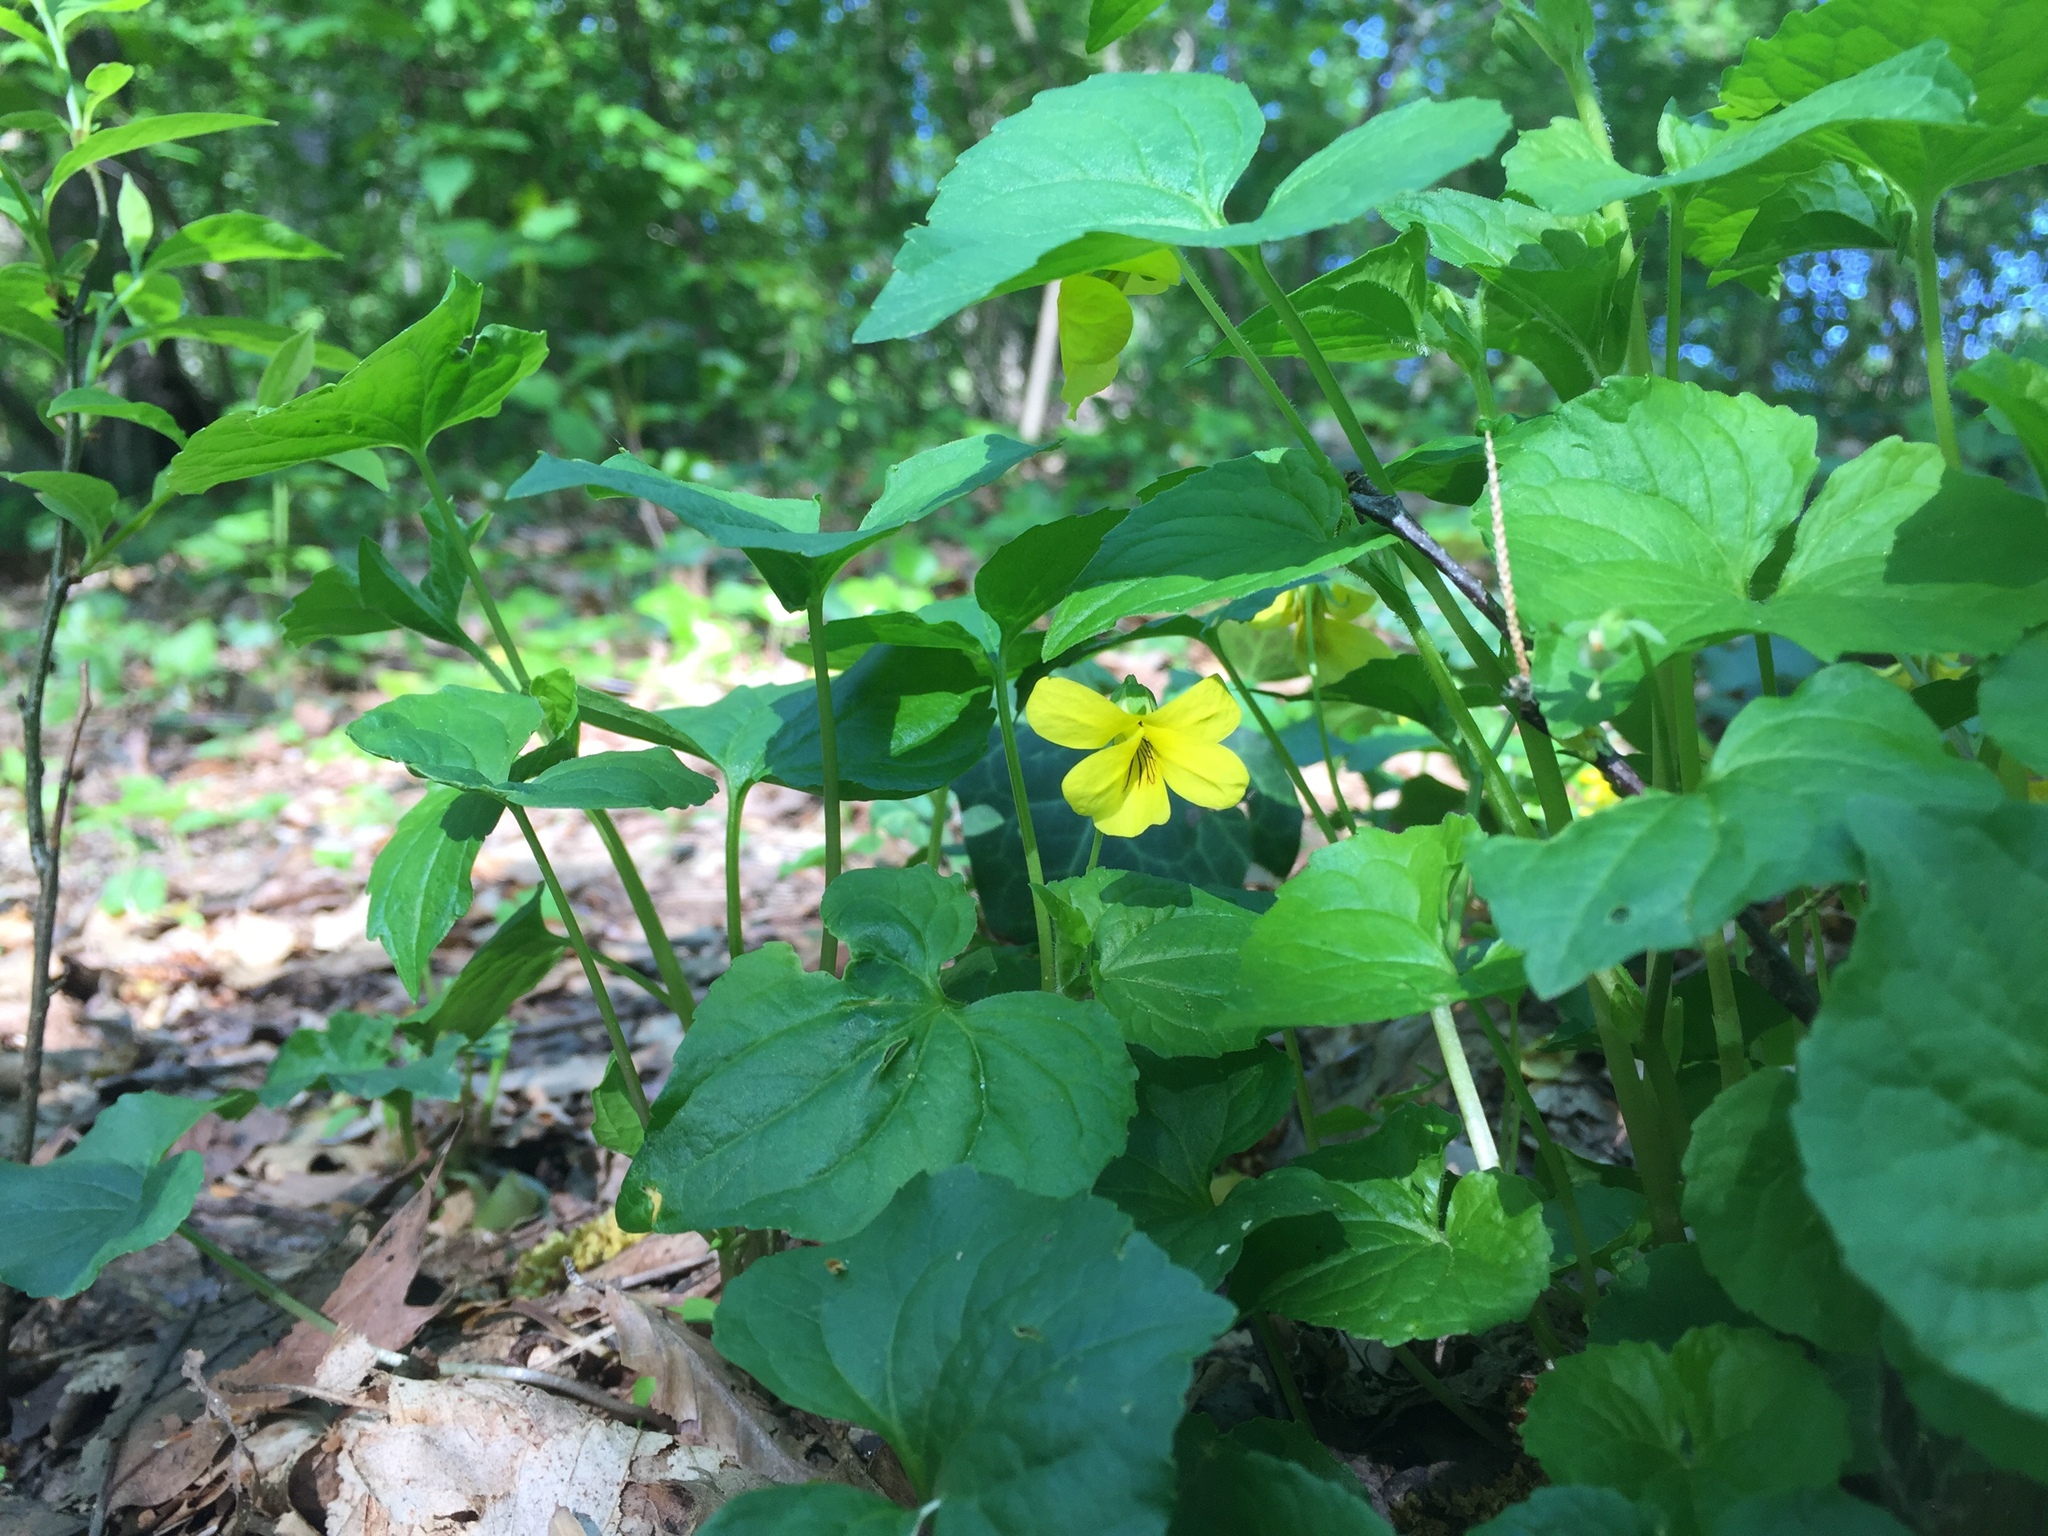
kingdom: Plantae
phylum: Tracheophyta
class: Magnoliopsida
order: Malpighiales
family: Violaceae
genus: Viola
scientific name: Viola eriocarpa
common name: Smooth yellow violet
